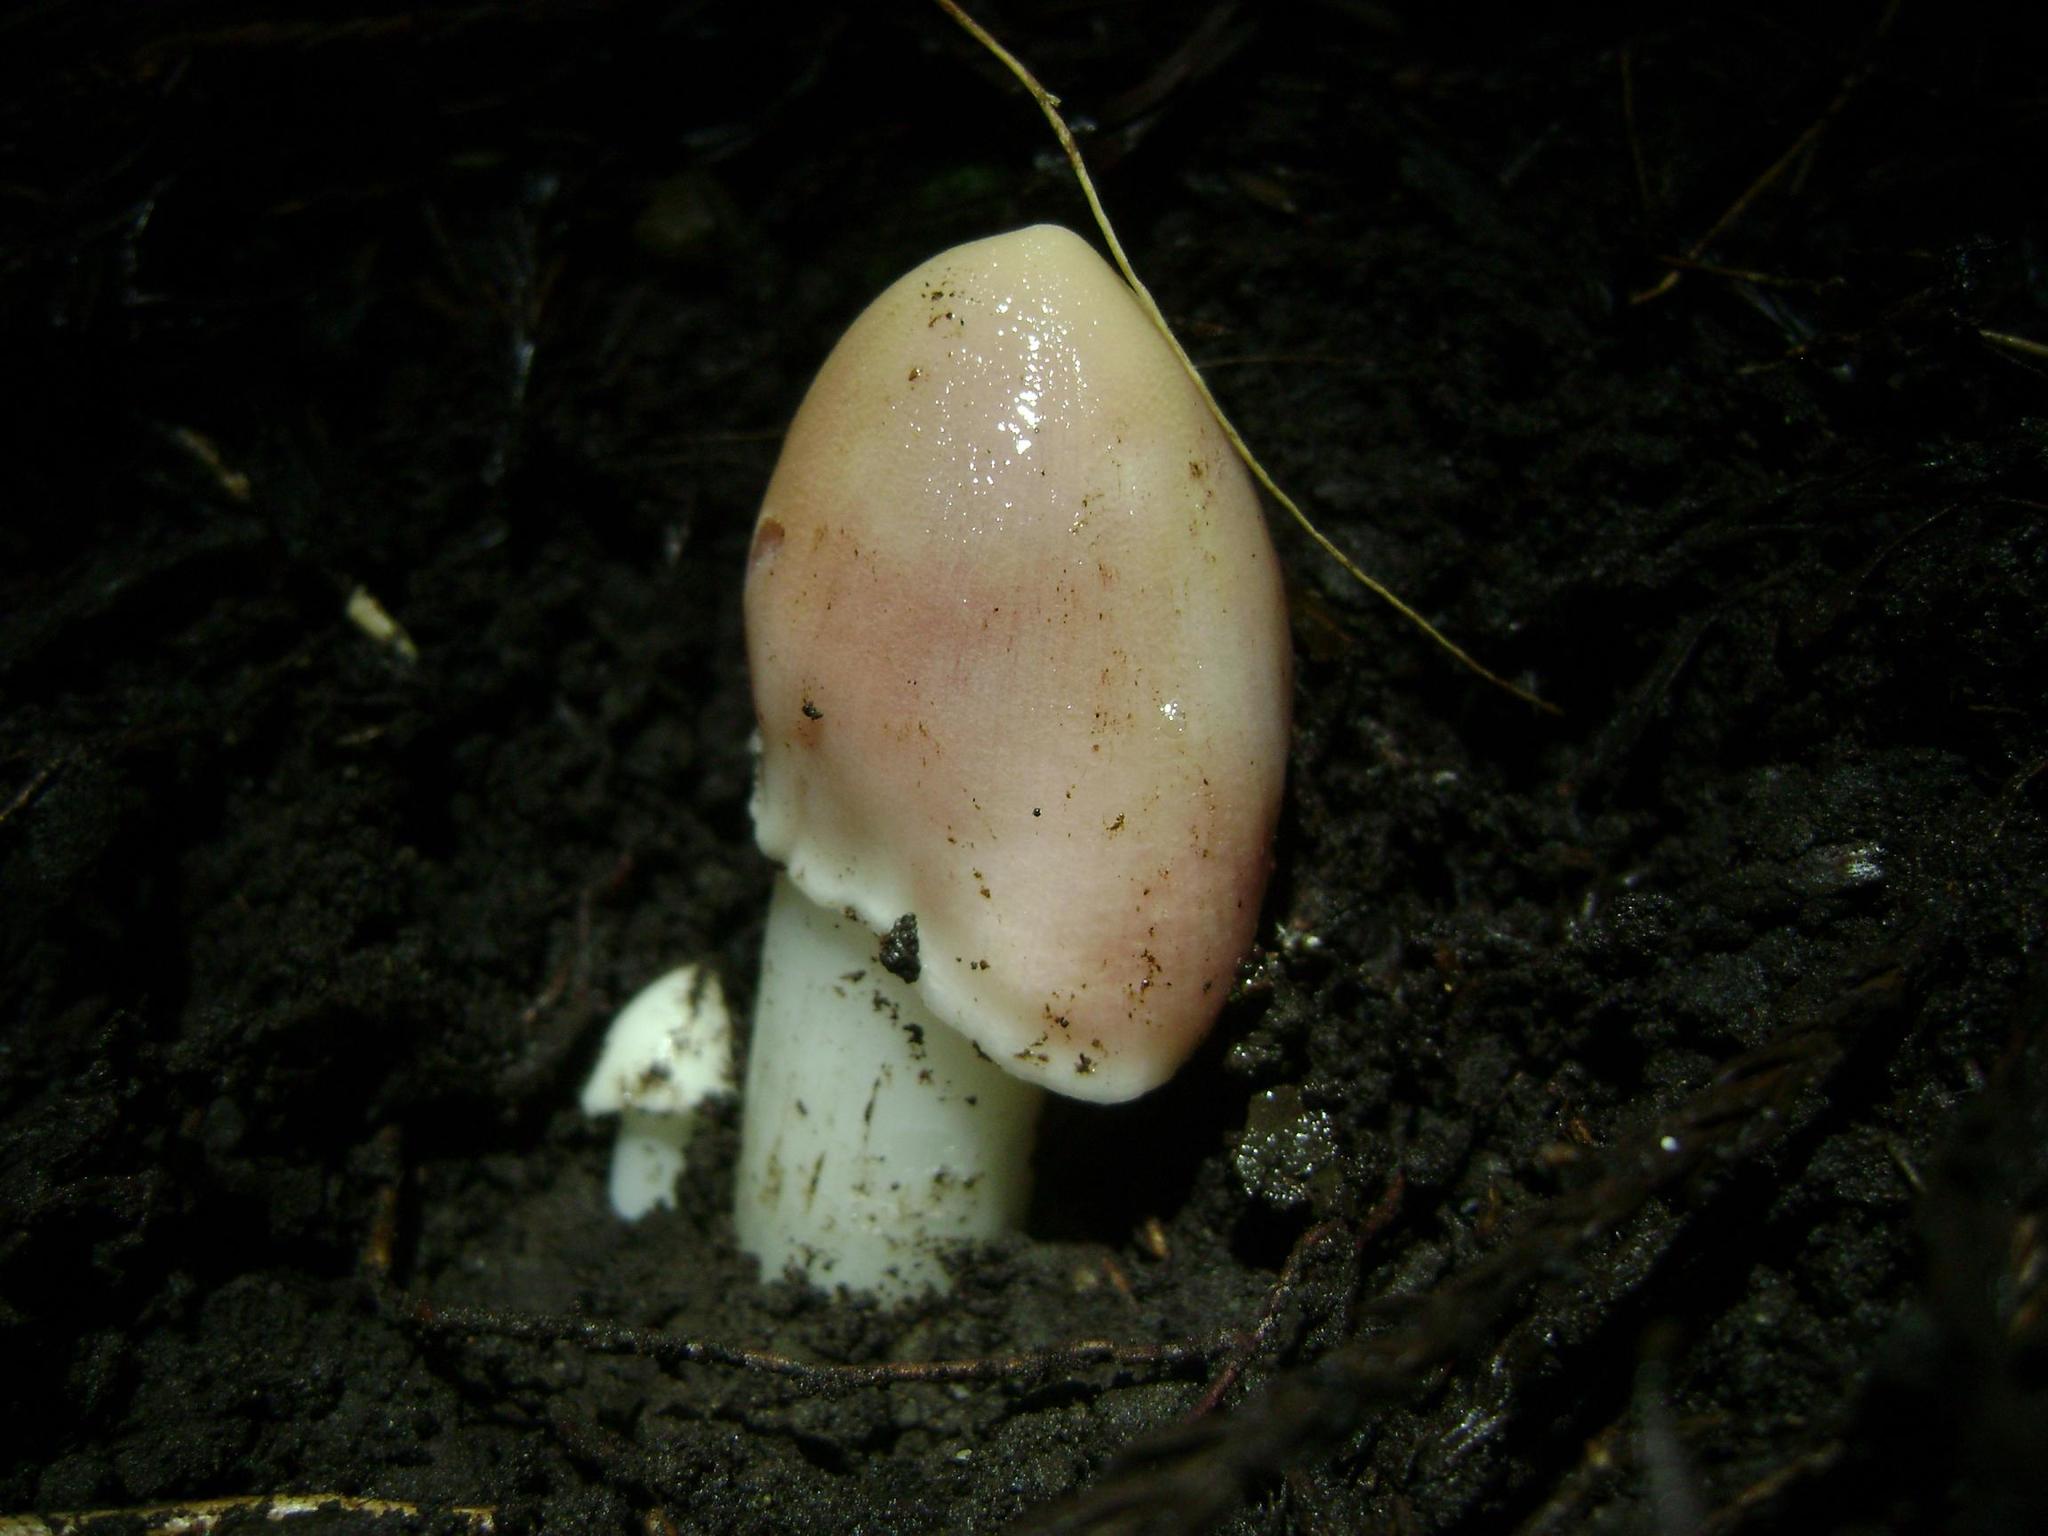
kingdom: Fungi
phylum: Basidiomycota
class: Agaricomycetes
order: Agaricales
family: Hygrophoraceae
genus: Porpolomopsis
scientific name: Porpolomopsis calyptriformis
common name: Pink waxcap
